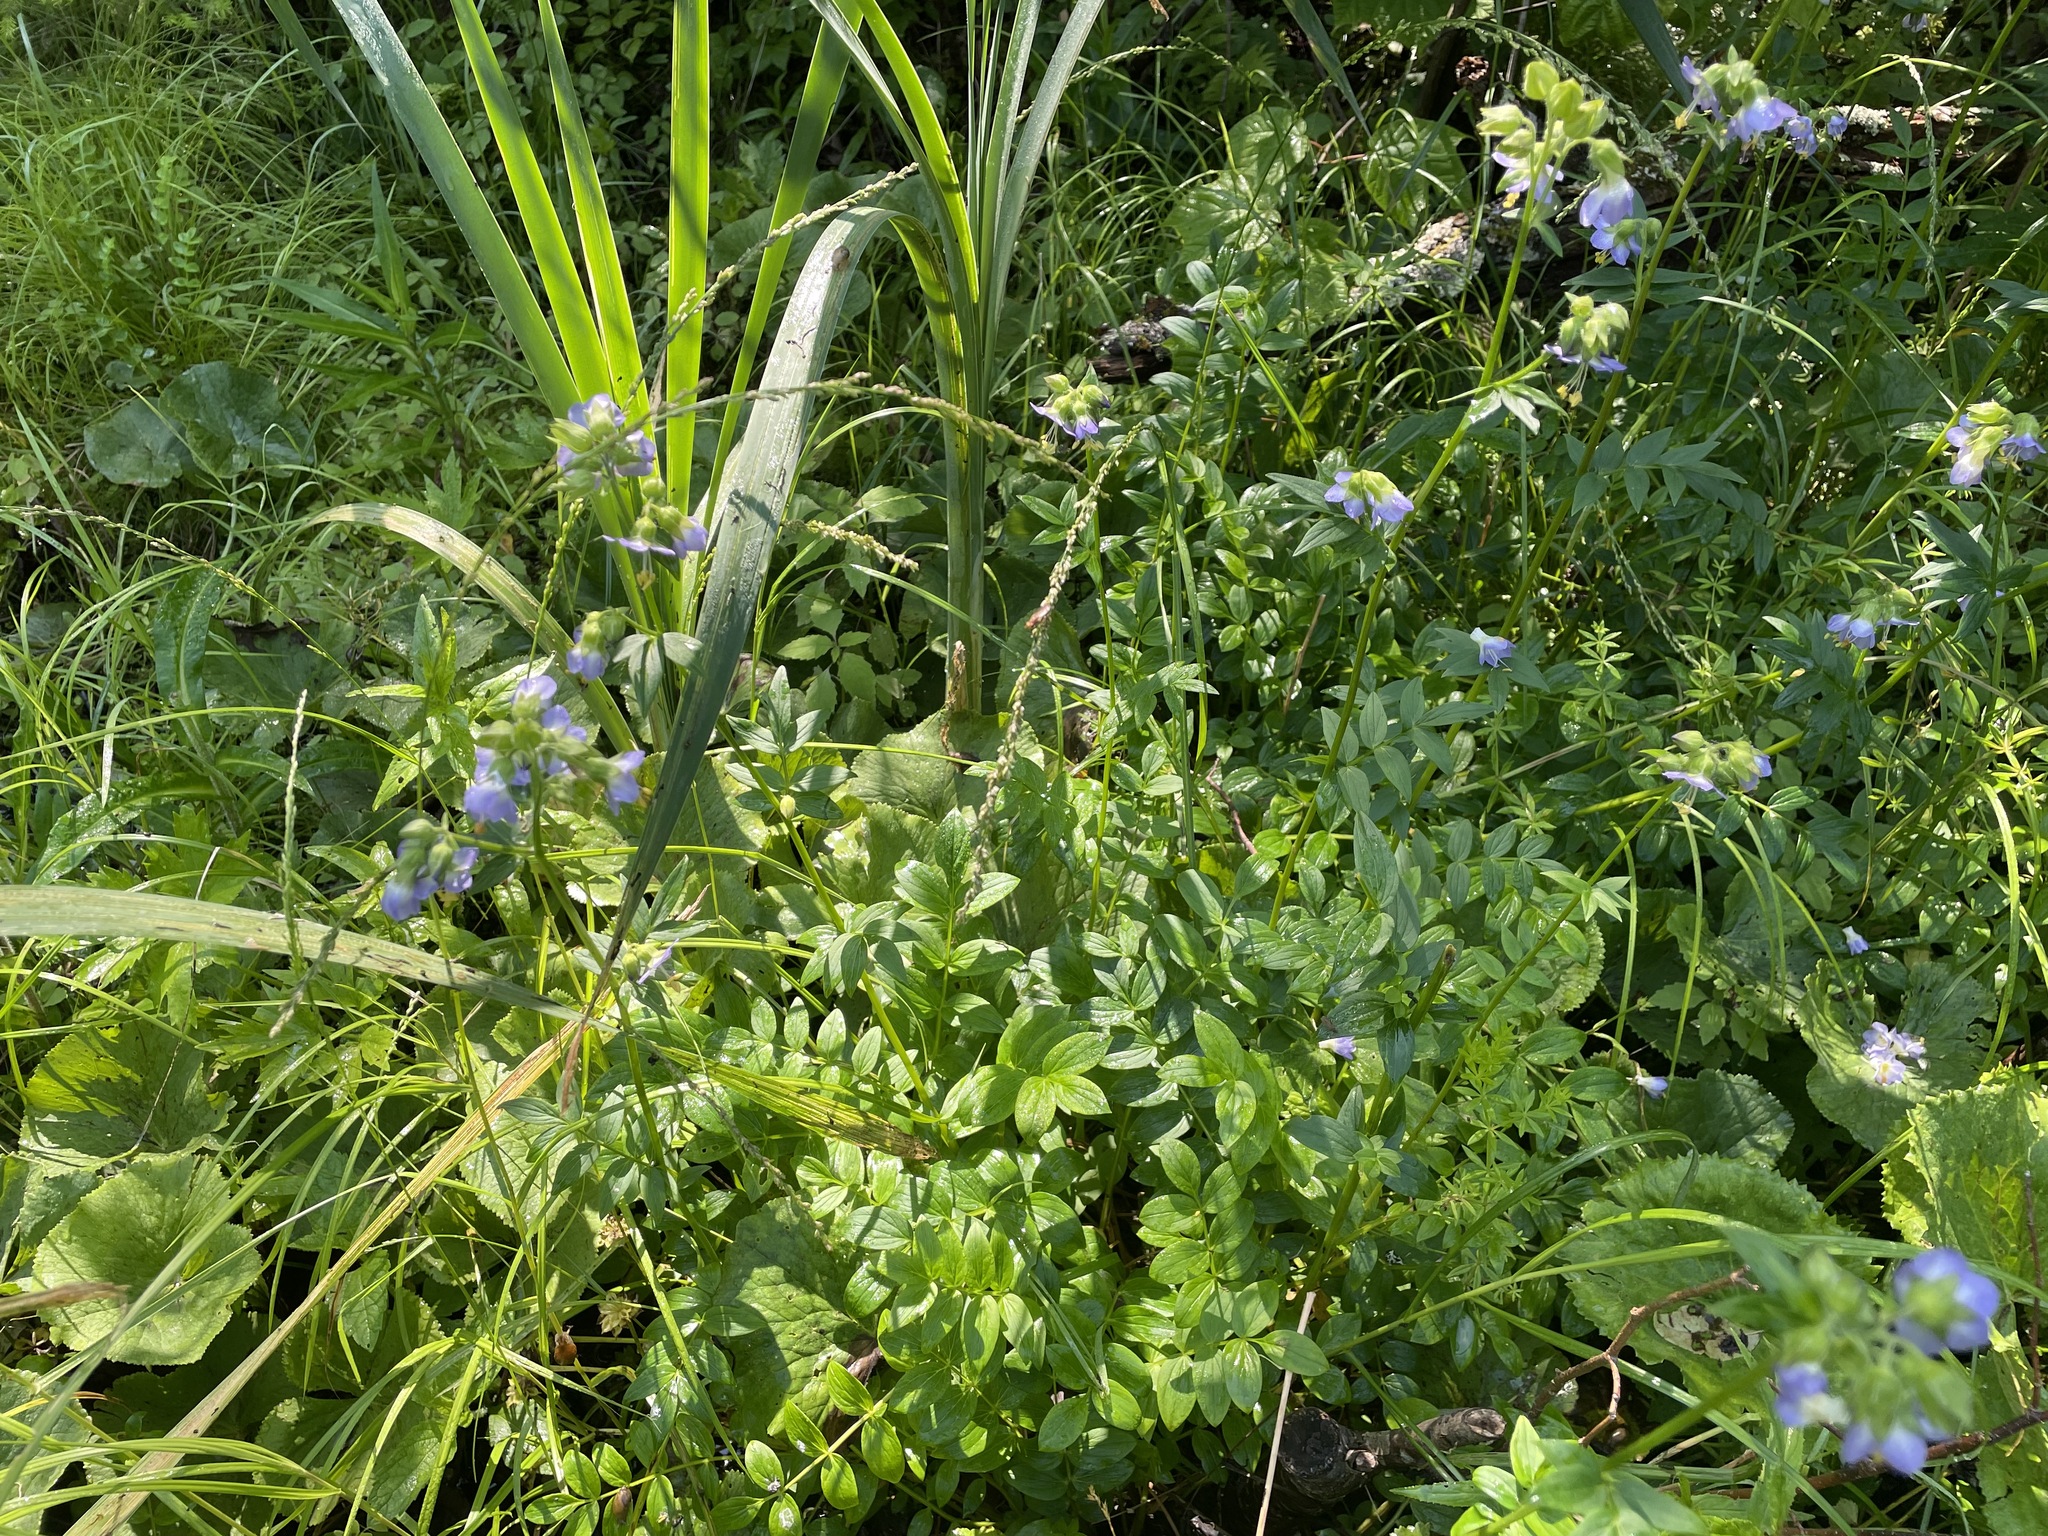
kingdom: Plantae
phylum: Tracheophyta
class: Magnoliopsida
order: Ericales
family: Polemoniaceae
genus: Polemonium
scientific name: Polemonium vanbruntiae
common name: Bog jacob's-ladder
